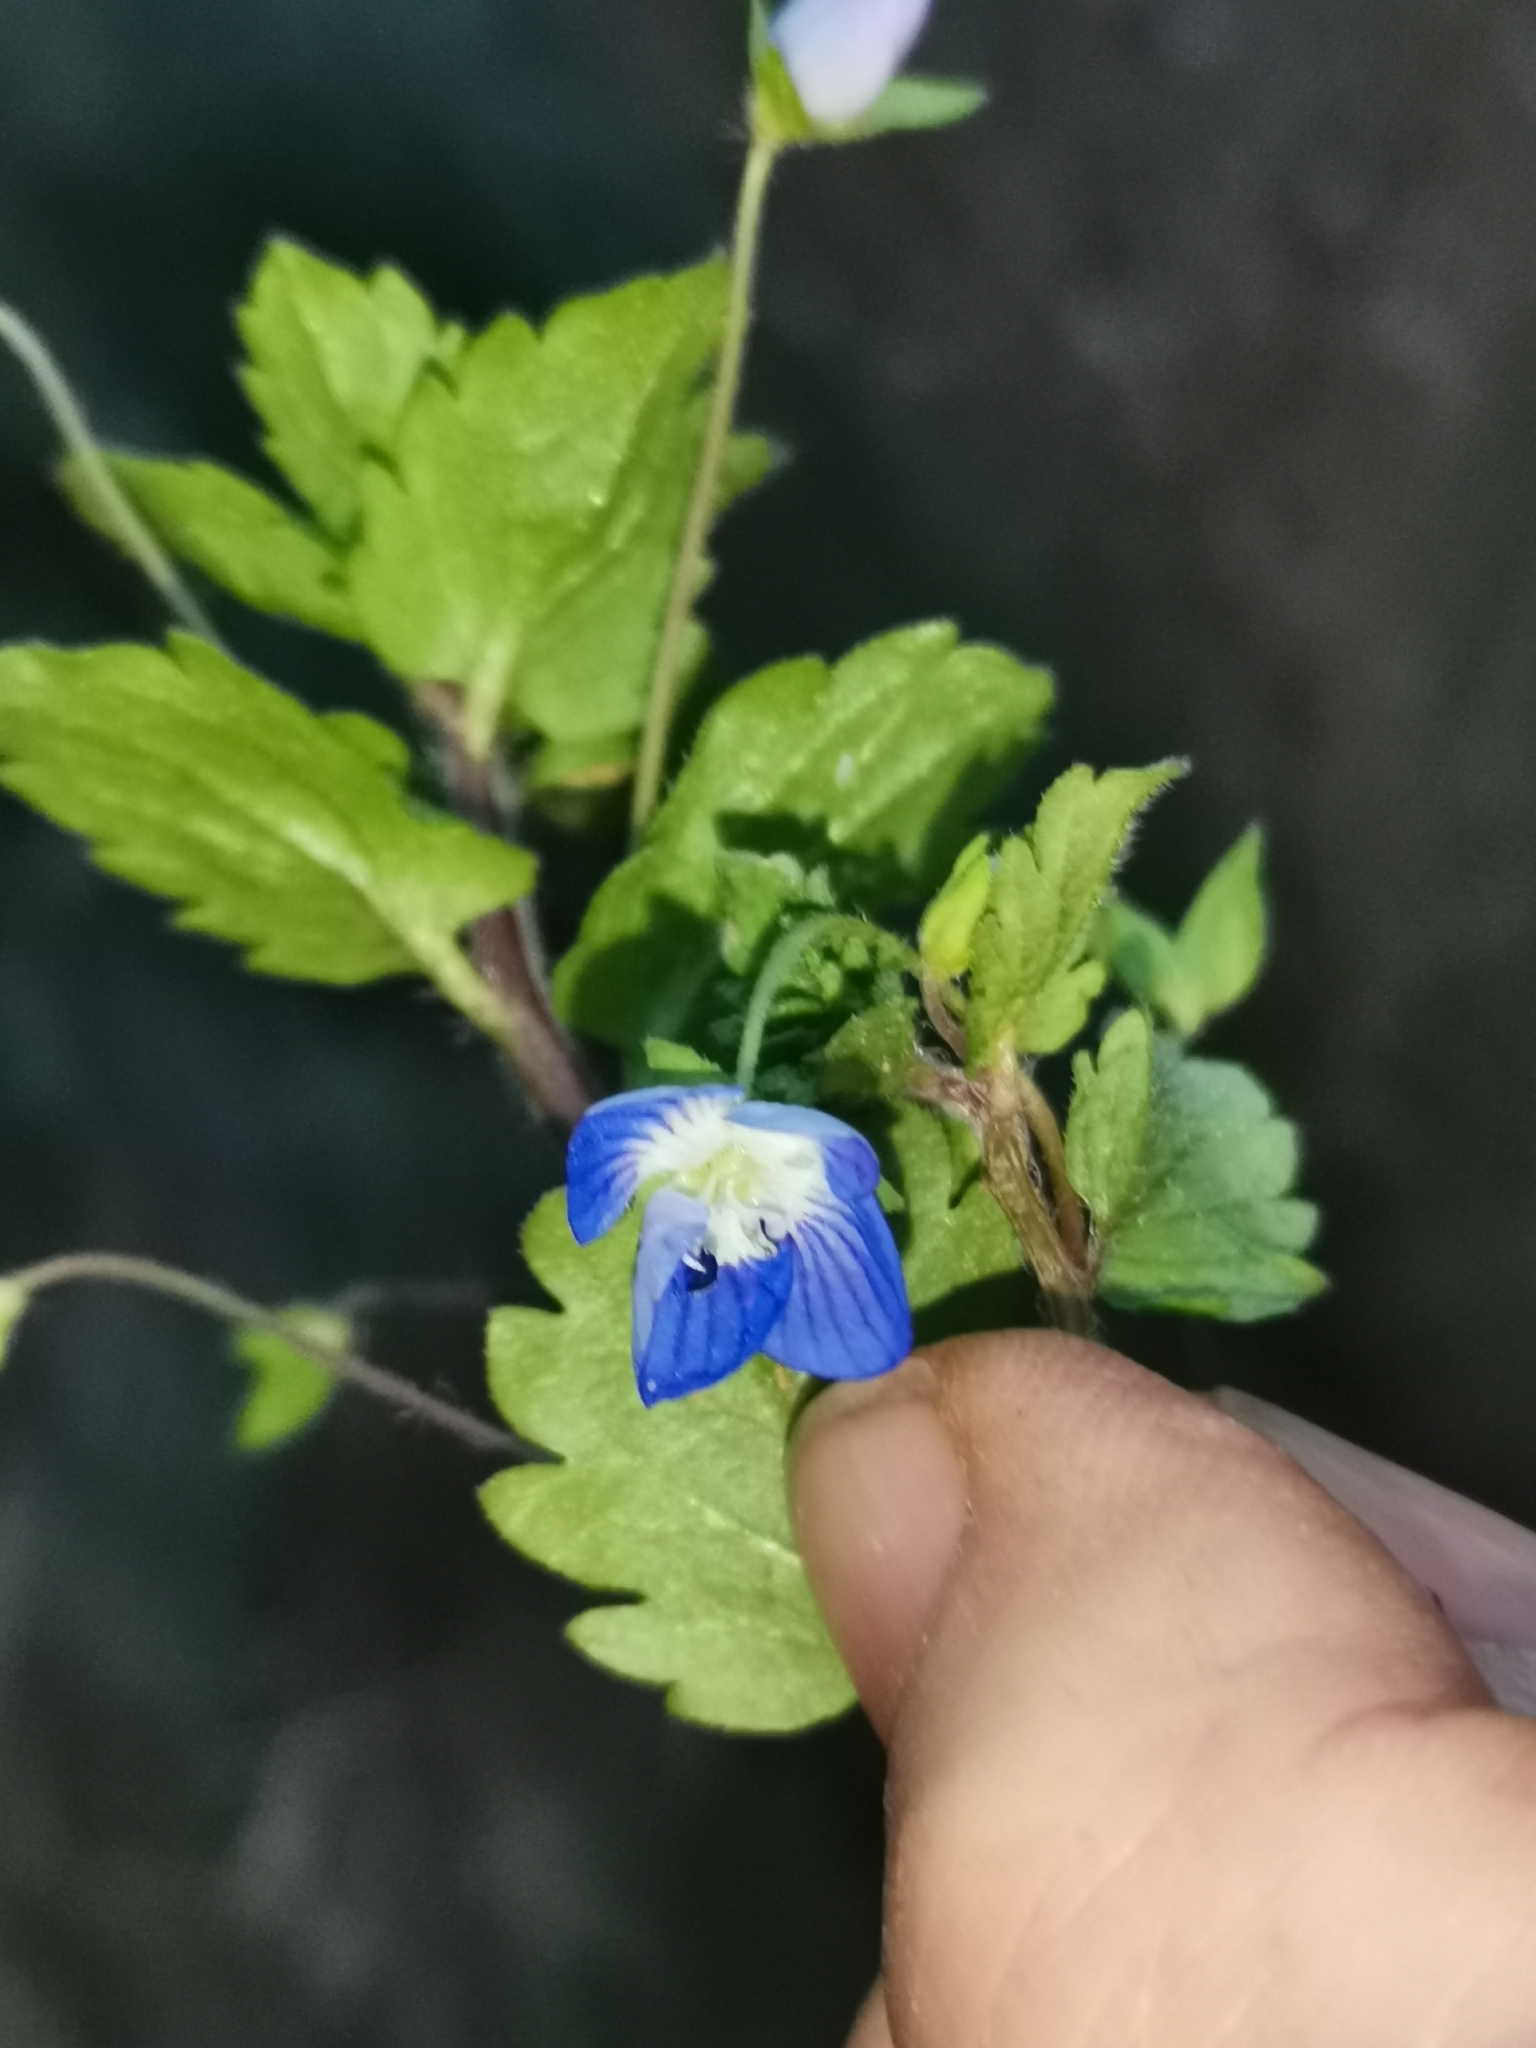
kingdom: Plantae
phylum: Tracheophyta
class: Magnoliopsida
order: Lamiales
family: Plantaginaceae
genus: Veronica
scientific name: Veronica persica
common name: Common field-speedwell
